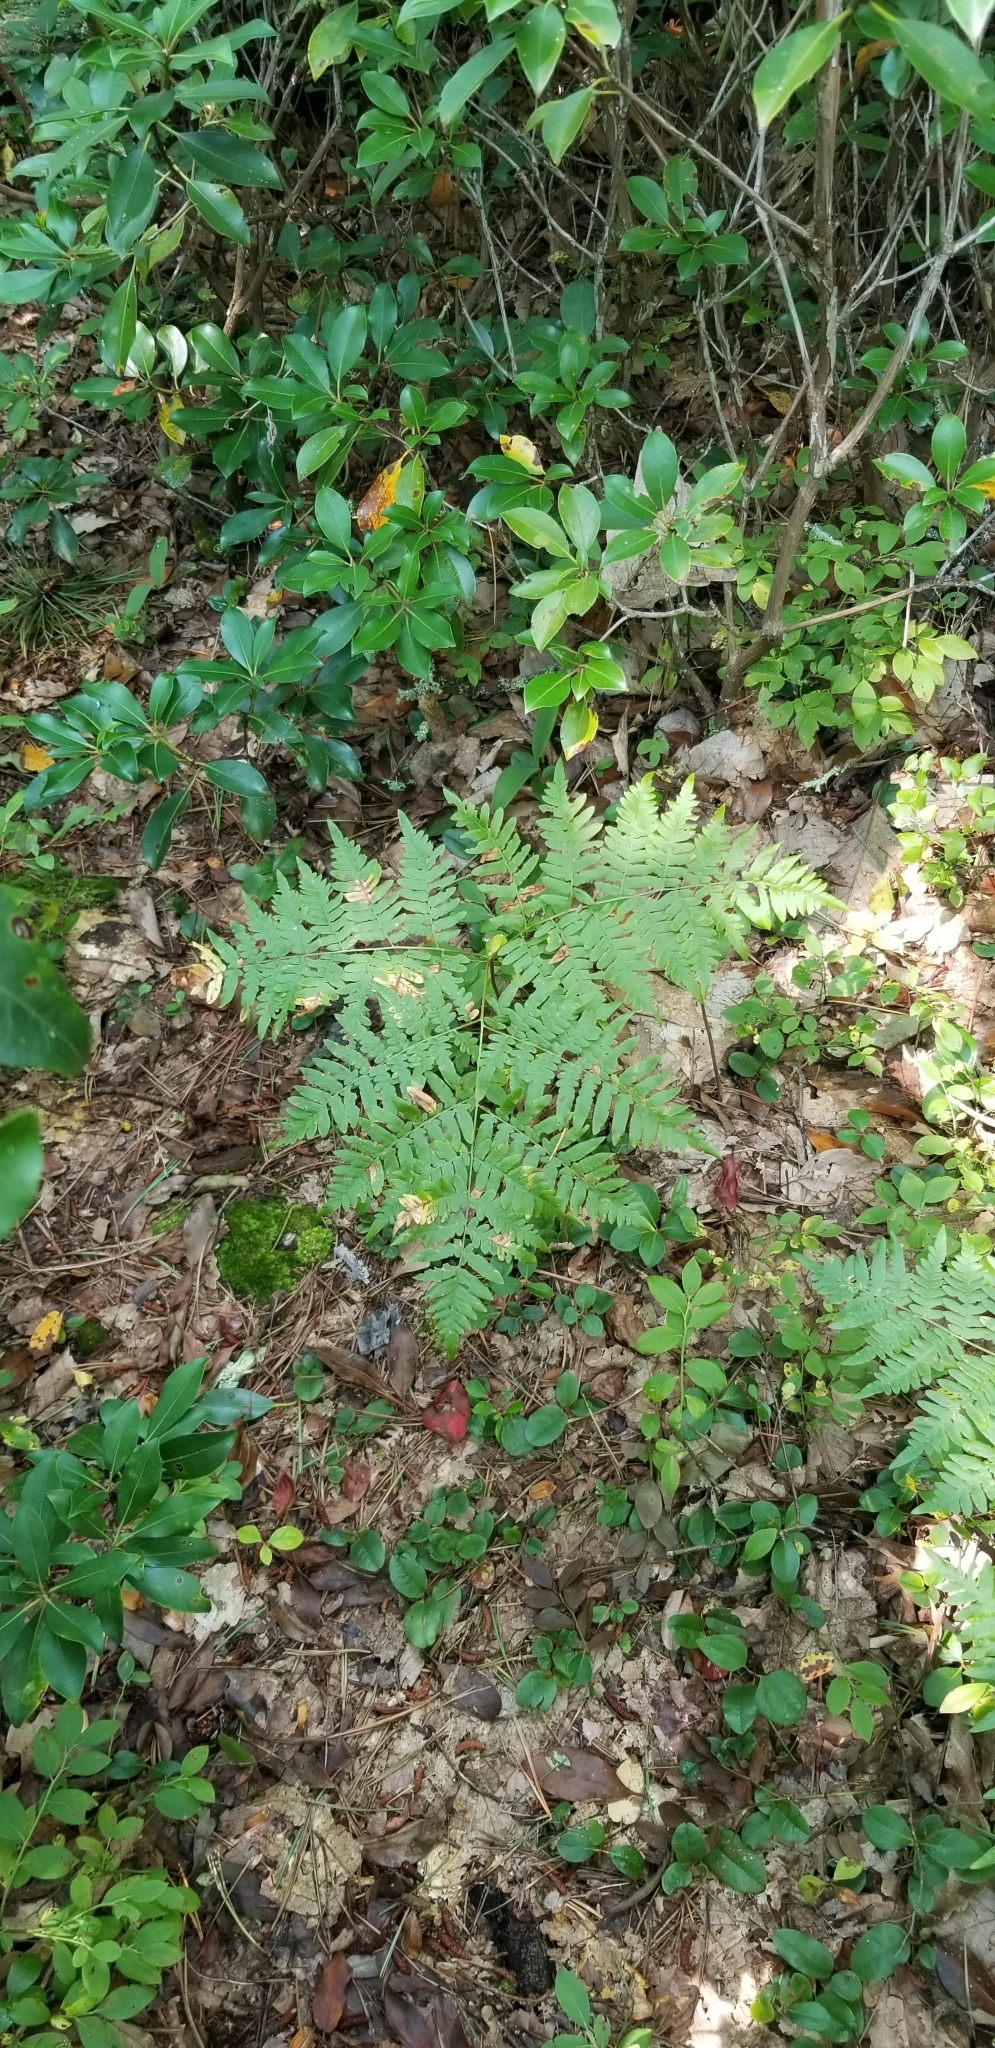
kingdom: Plantae
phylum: Tracheophyta
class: Polypodiopsida
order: Polypodiales
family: Dennstaedtiaceae
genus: Pteridium
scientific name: Pteridium aquilinum
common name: Bracken
